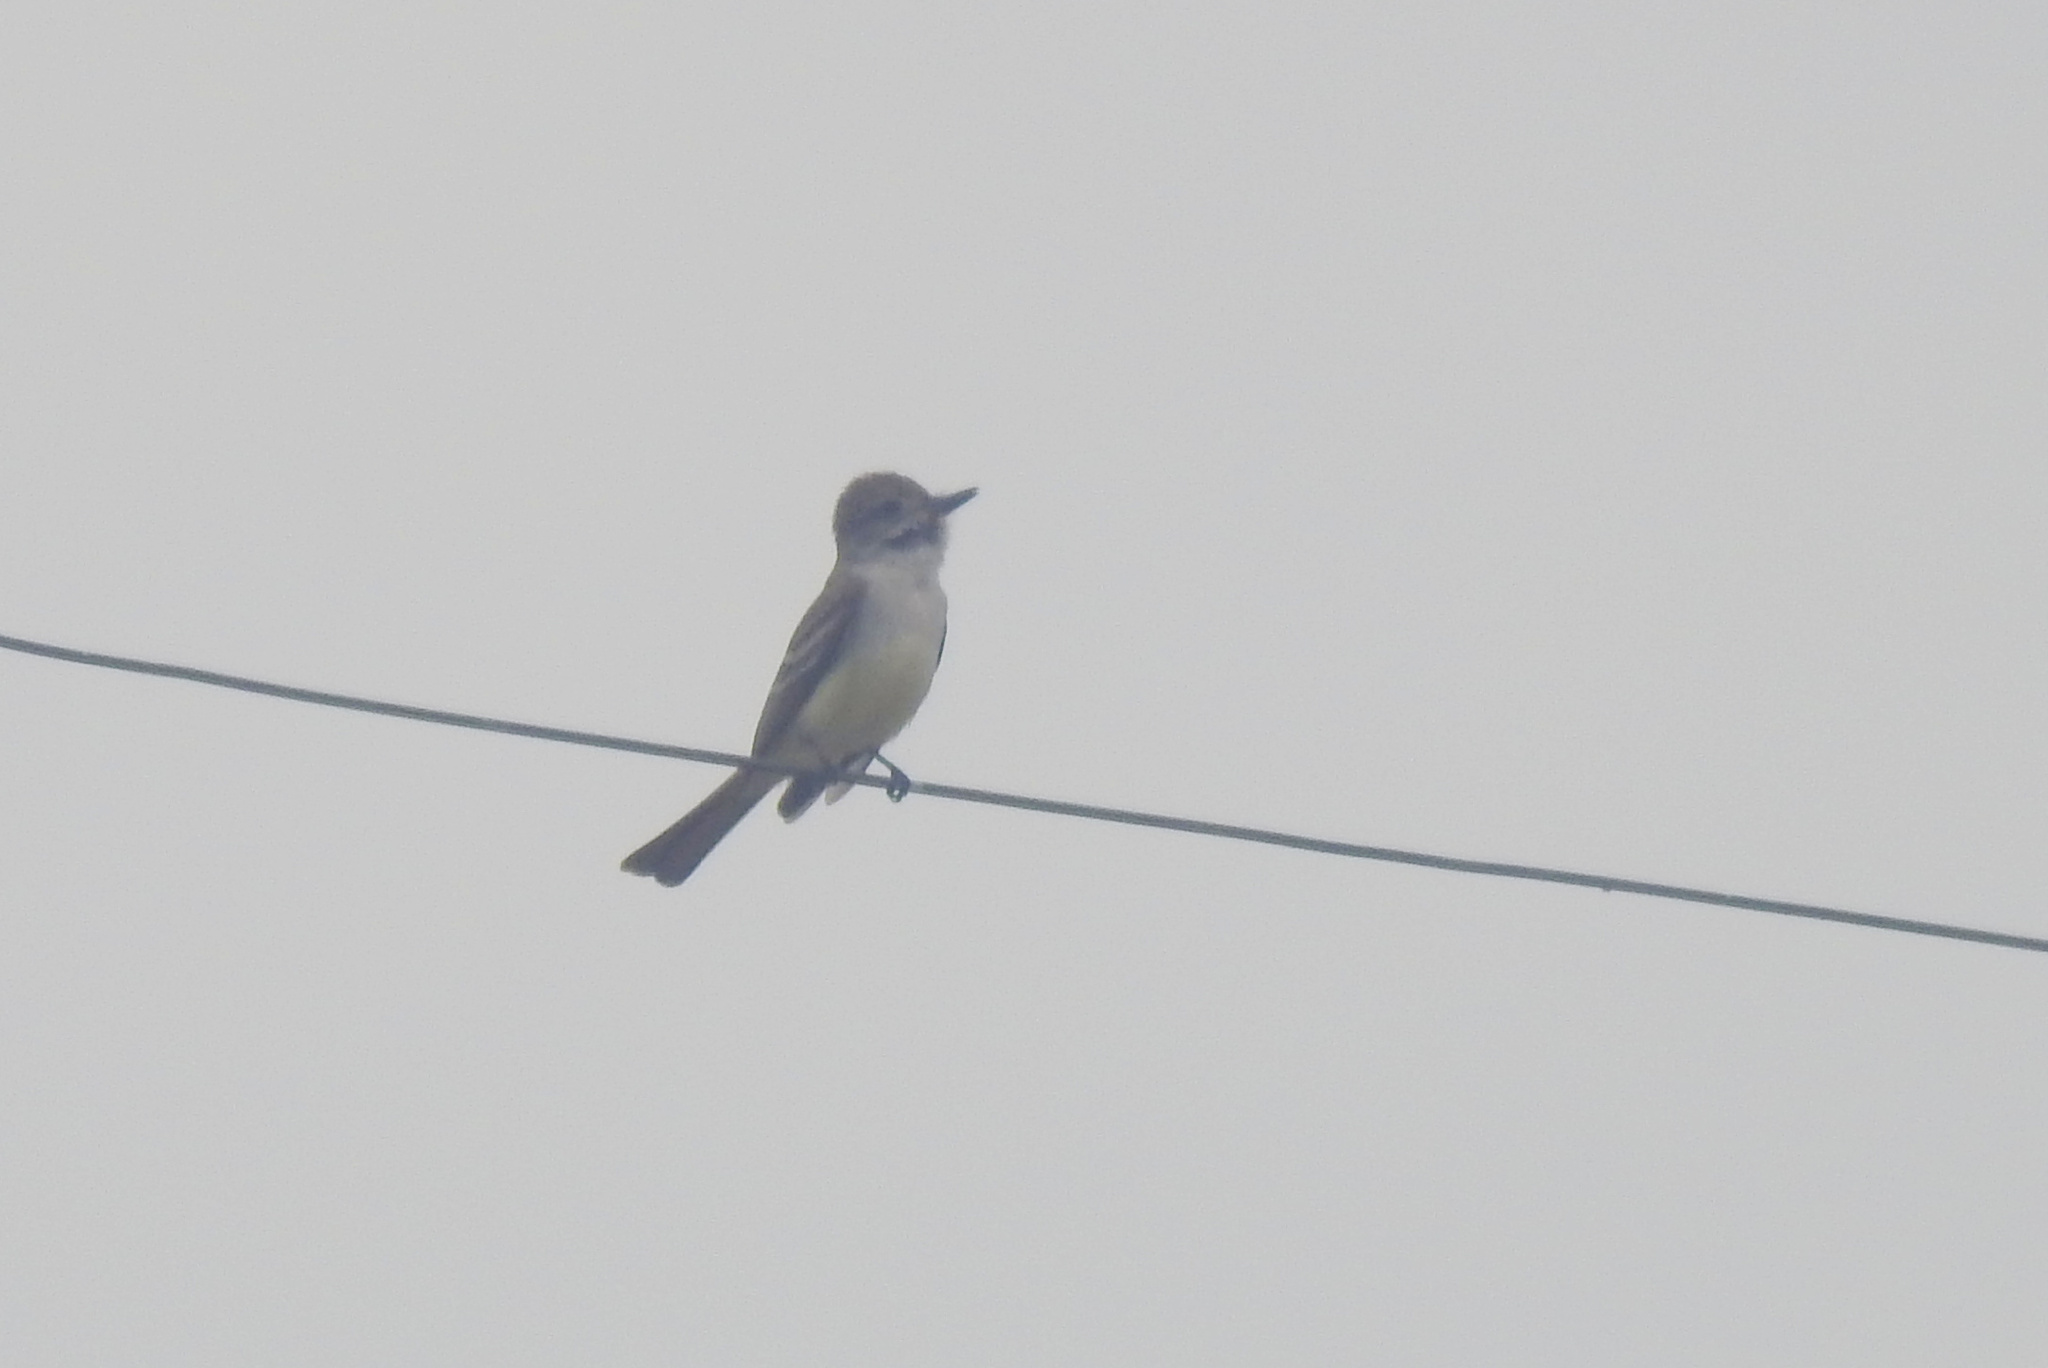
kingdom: Animalia
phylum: Chordata
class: Aves
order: Passeriformes
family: Tyrannidae
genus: Myiarchus
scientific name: Myiarchus cinerascens
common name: Ash-throated flycatcher
